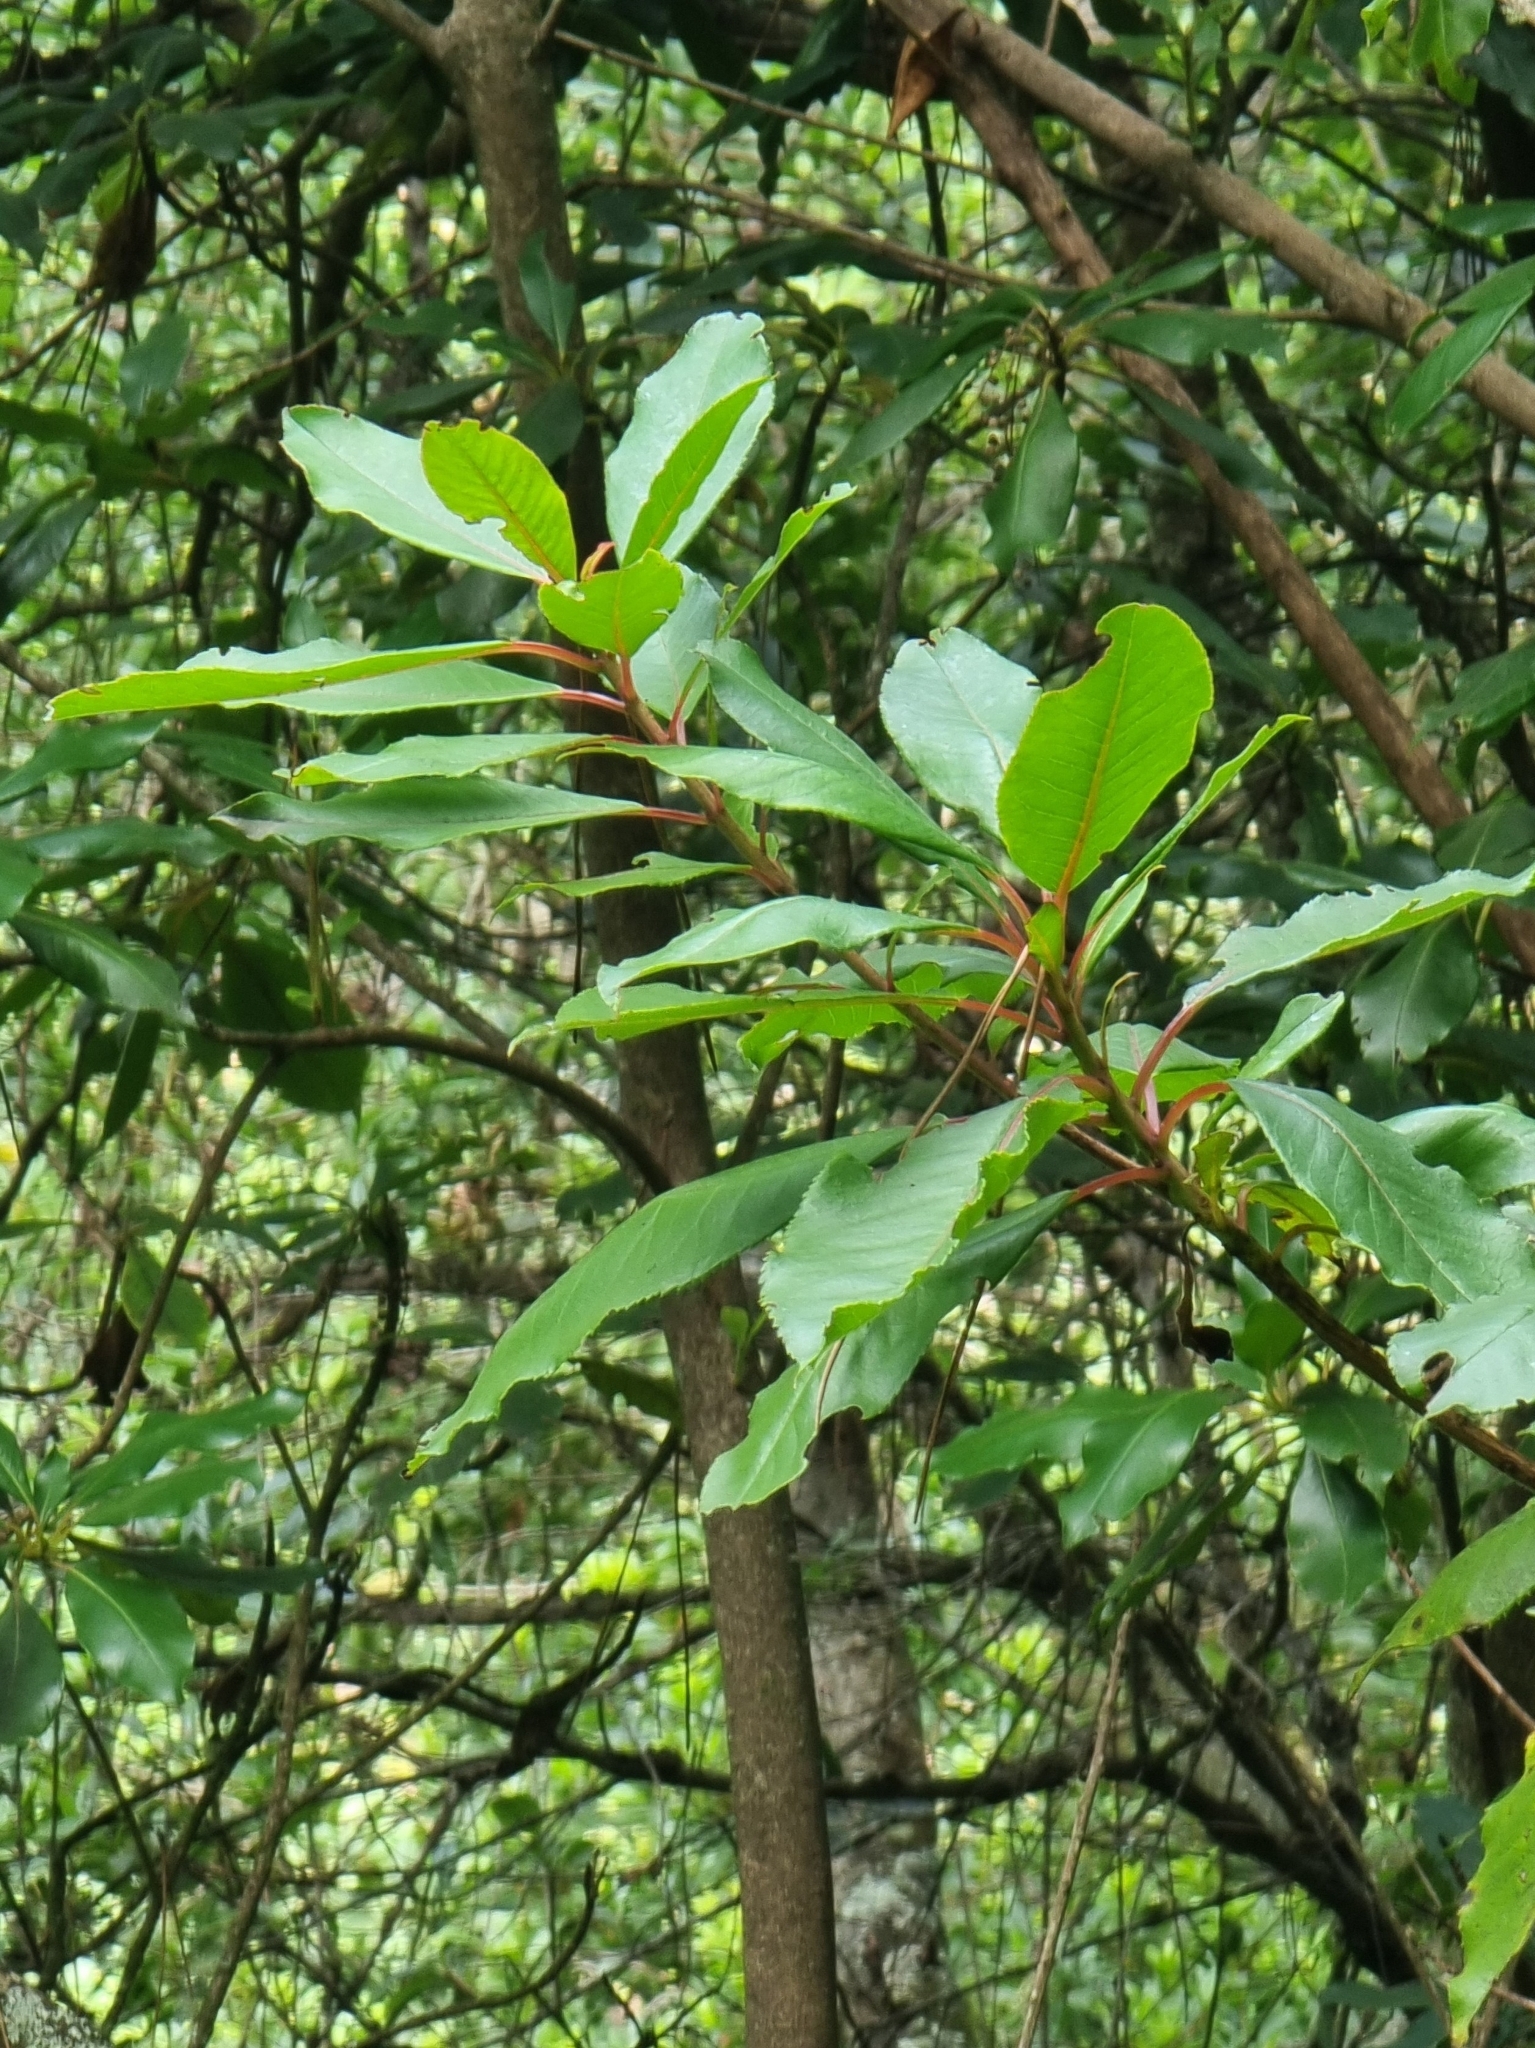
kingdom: Plantae
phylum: Tracheophyta
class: Magnoliopsida
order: Ericales
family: Clethraceae
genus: Clethra
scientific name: Clethra arborea
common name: Lily-of-the-valley-tree
